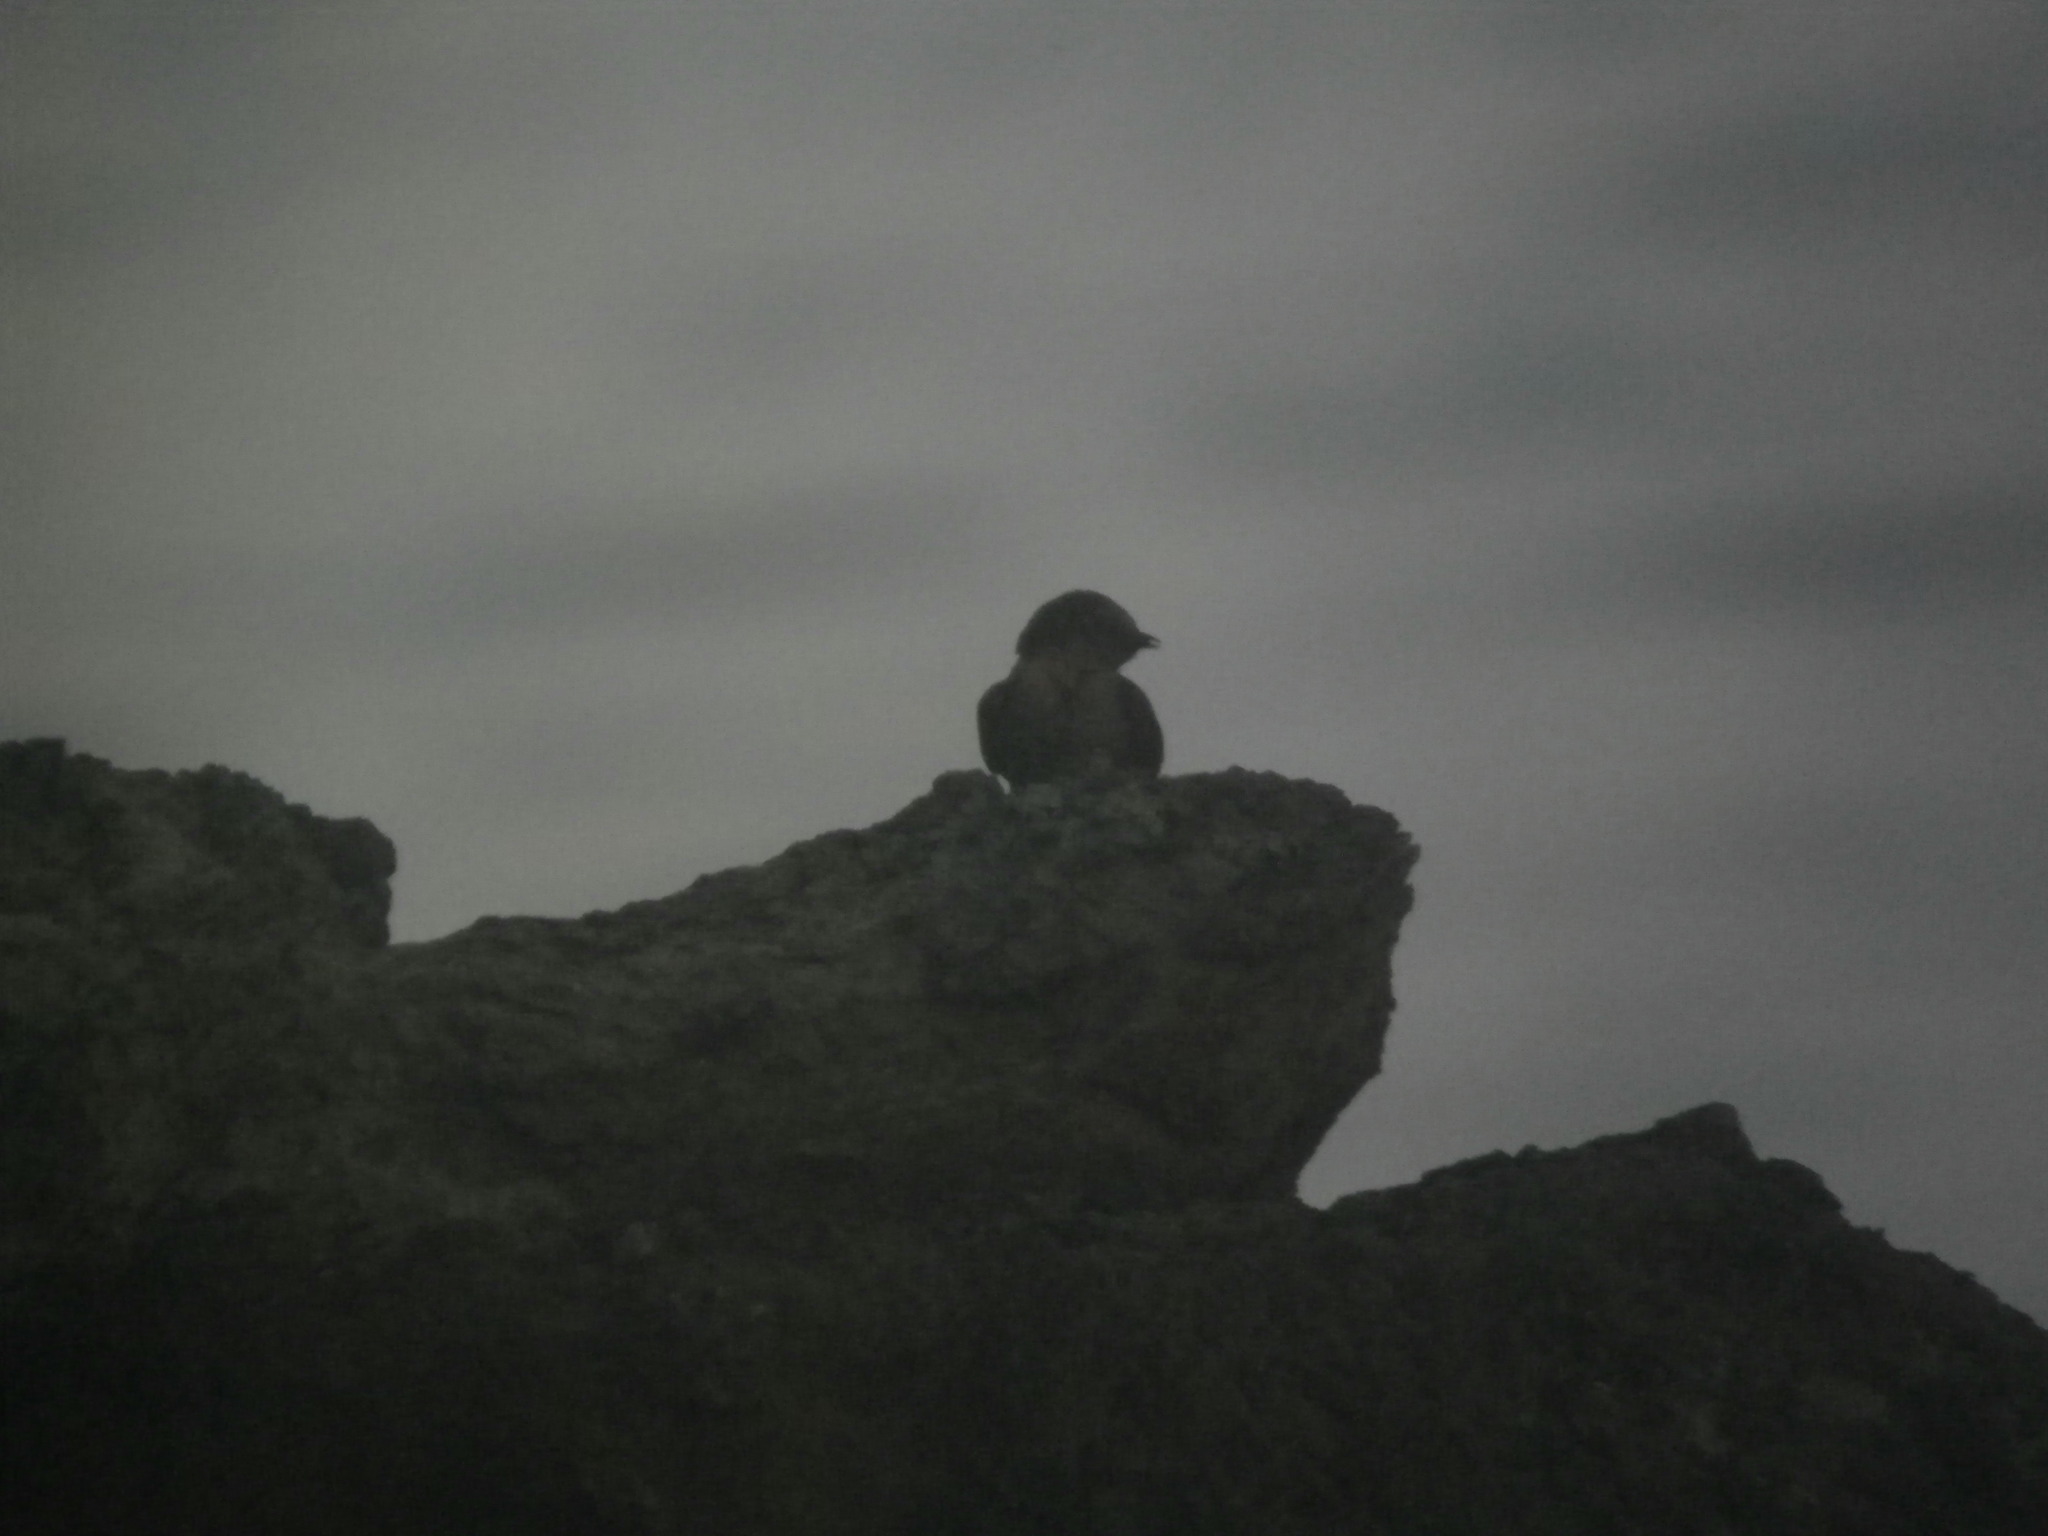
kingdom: Animalia
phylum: Chordata
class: Aves
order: Passeriformes
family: Hirundinidae
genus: Hirundo
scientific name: Hirundo tahitica
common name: Pacific swallow
